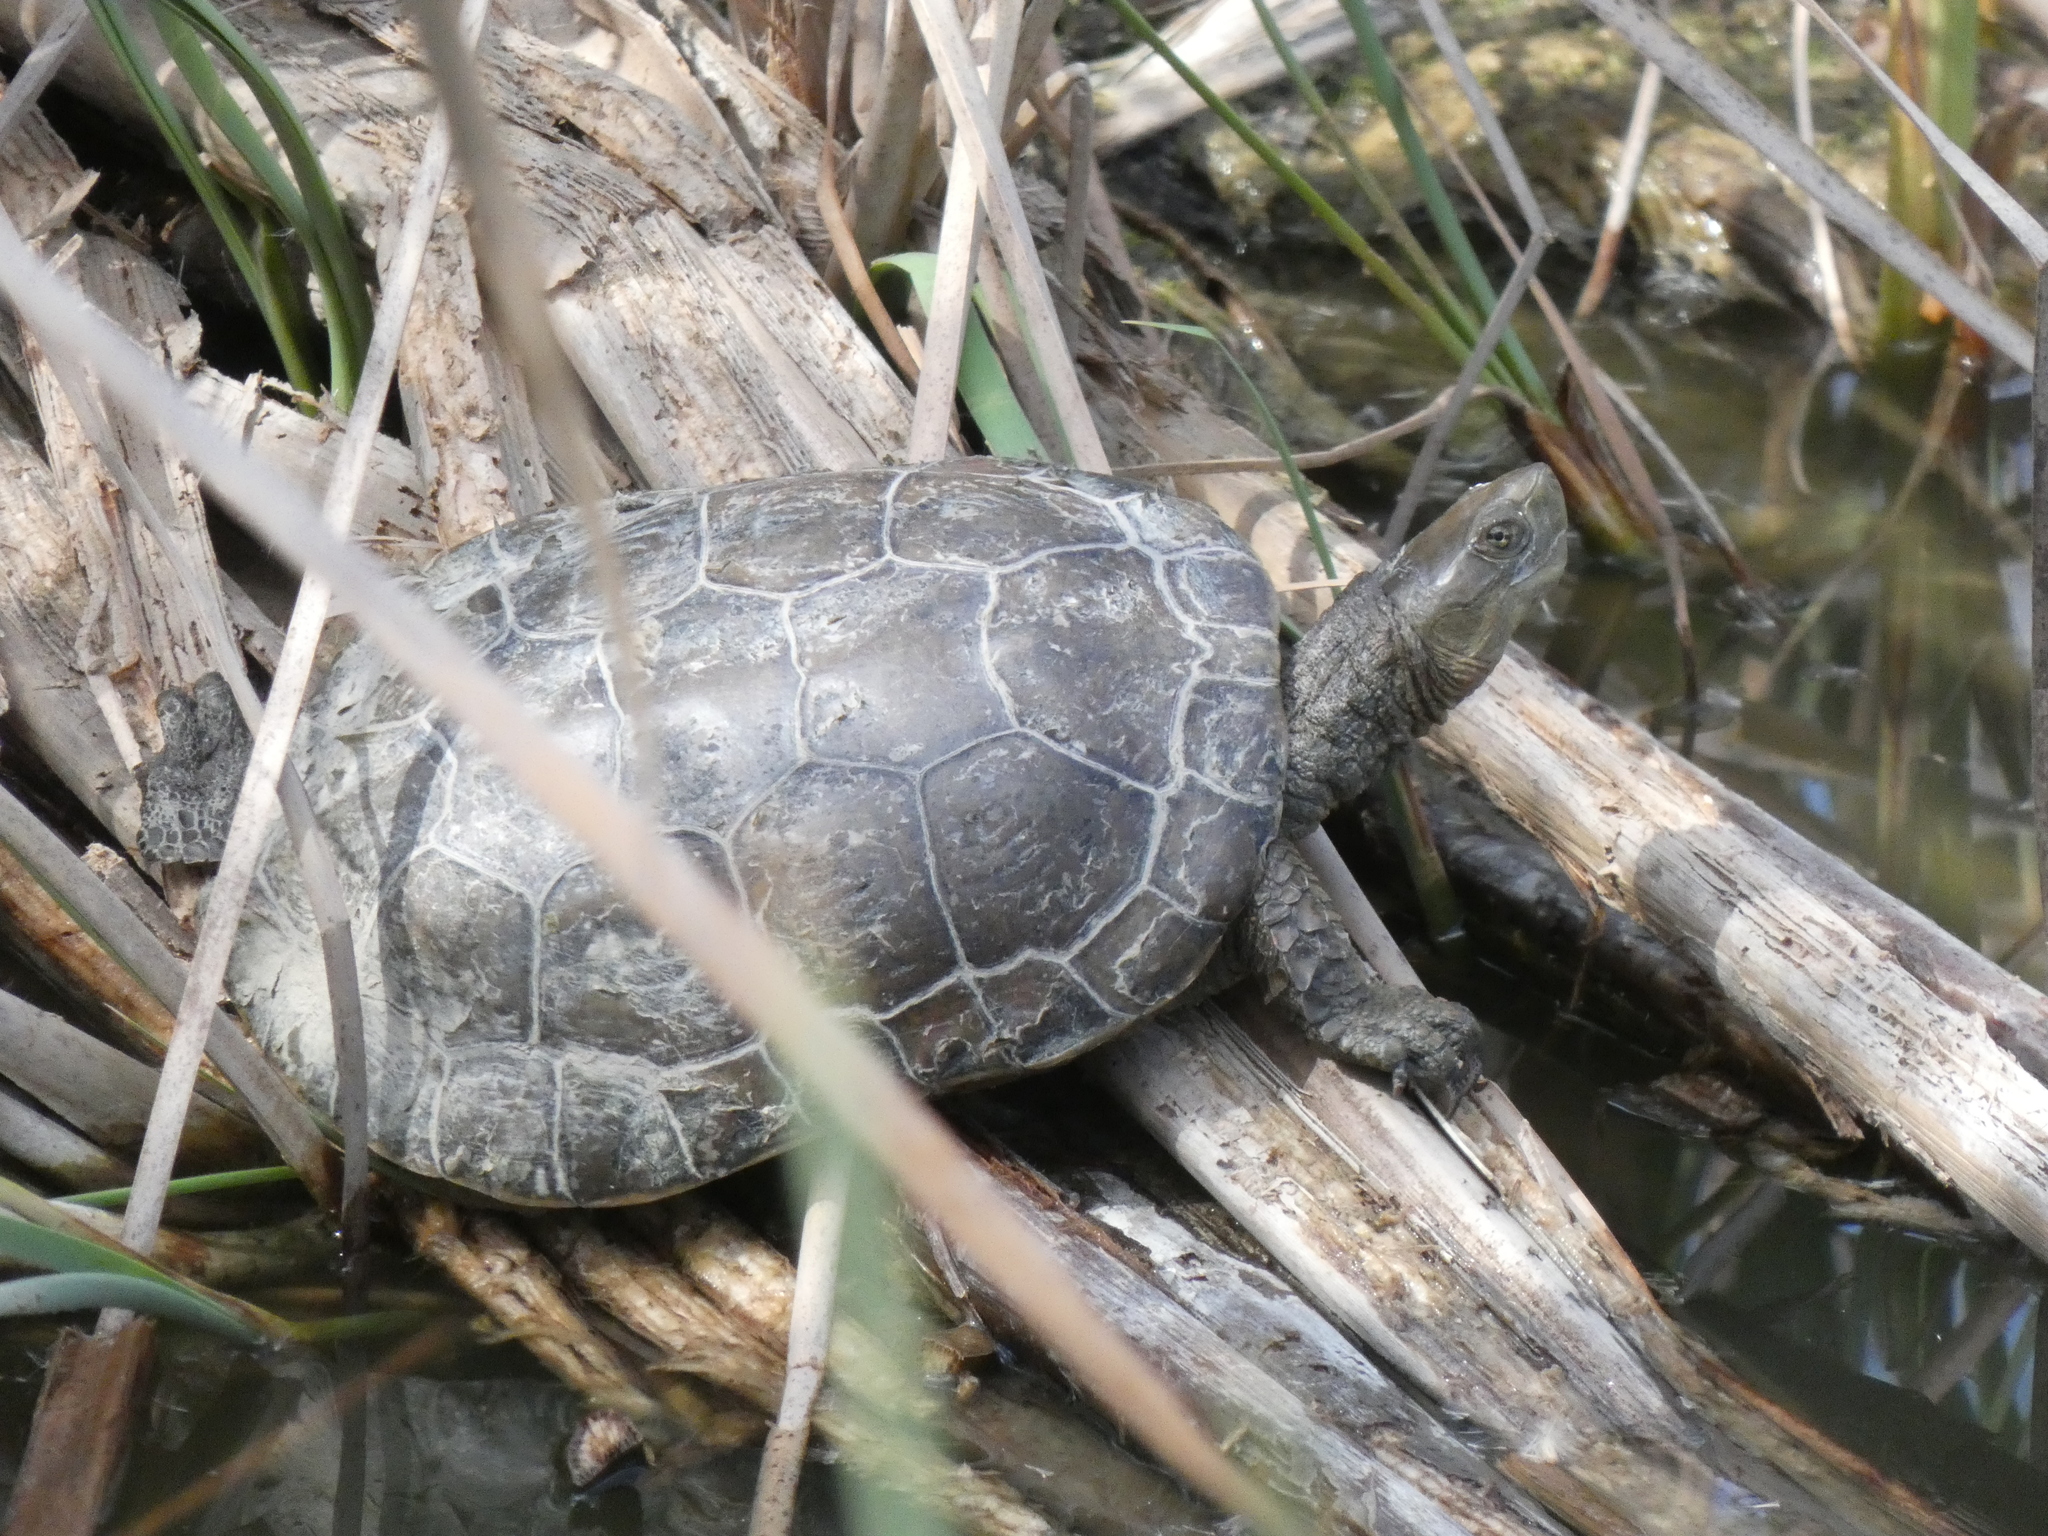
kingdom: Animalia
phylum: Chordata
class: Testudines
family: Geoemydidae
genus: Mauremys
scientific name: Mauremys leprosa
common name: Mediterranean pond turtle
